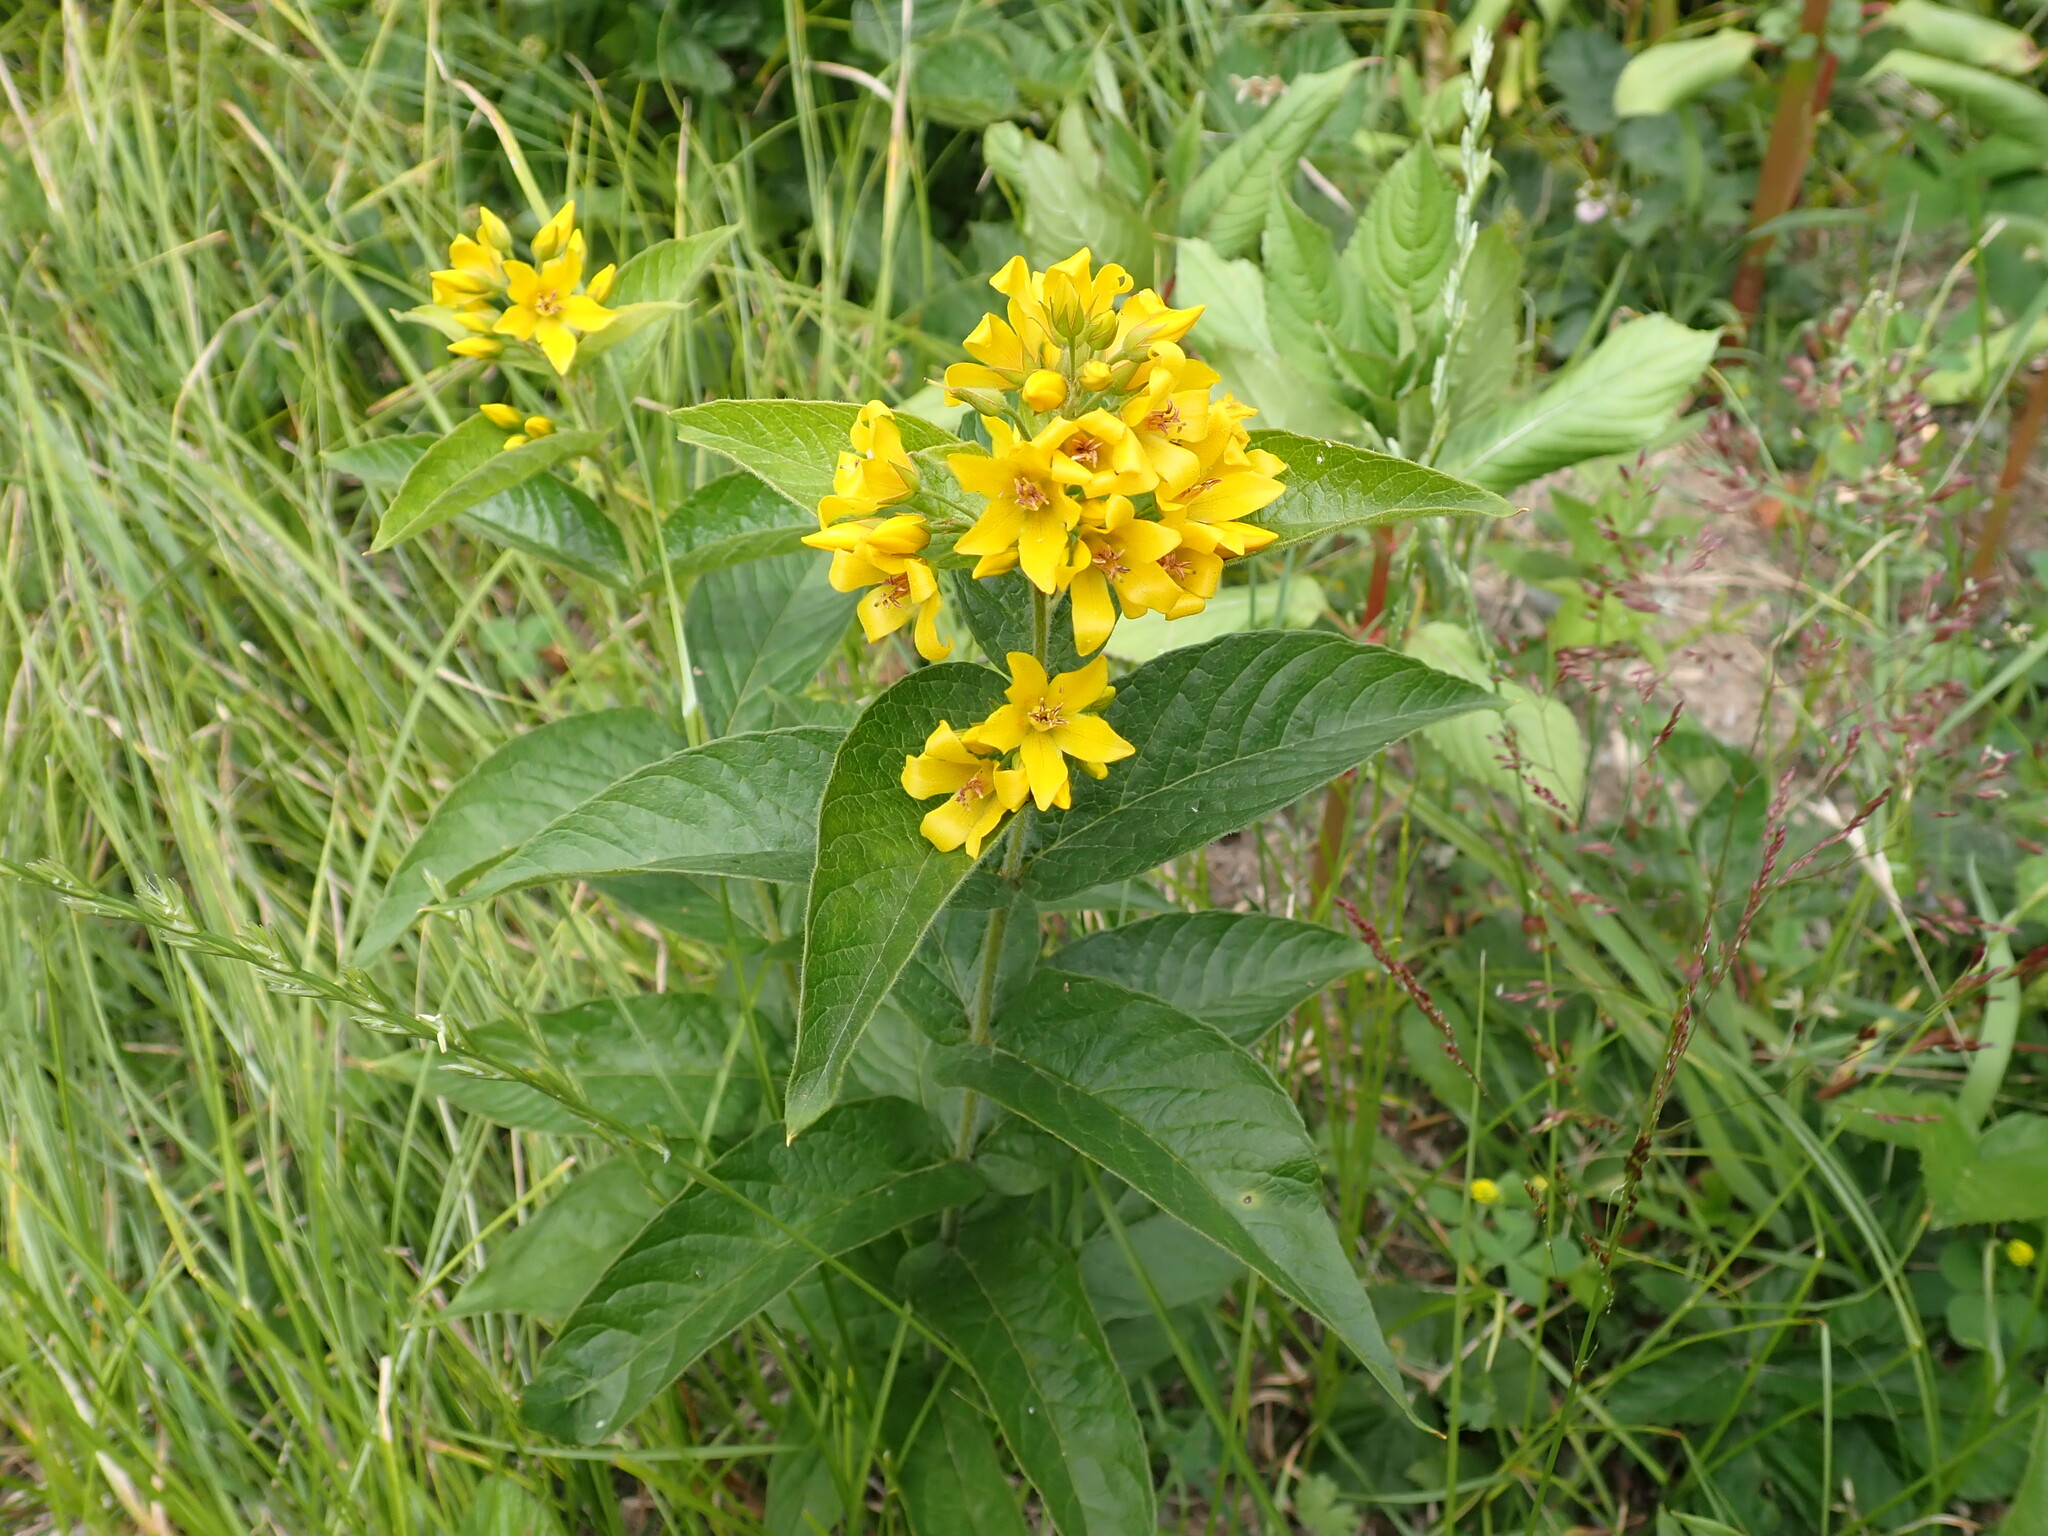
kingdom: Plantae
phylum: Tracheophyta
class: Magnoliopsida
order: Ericales
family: Primulaceae
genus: Lysimachia
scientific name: Lysimachia vulgaris
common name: Yellow loosestrife
